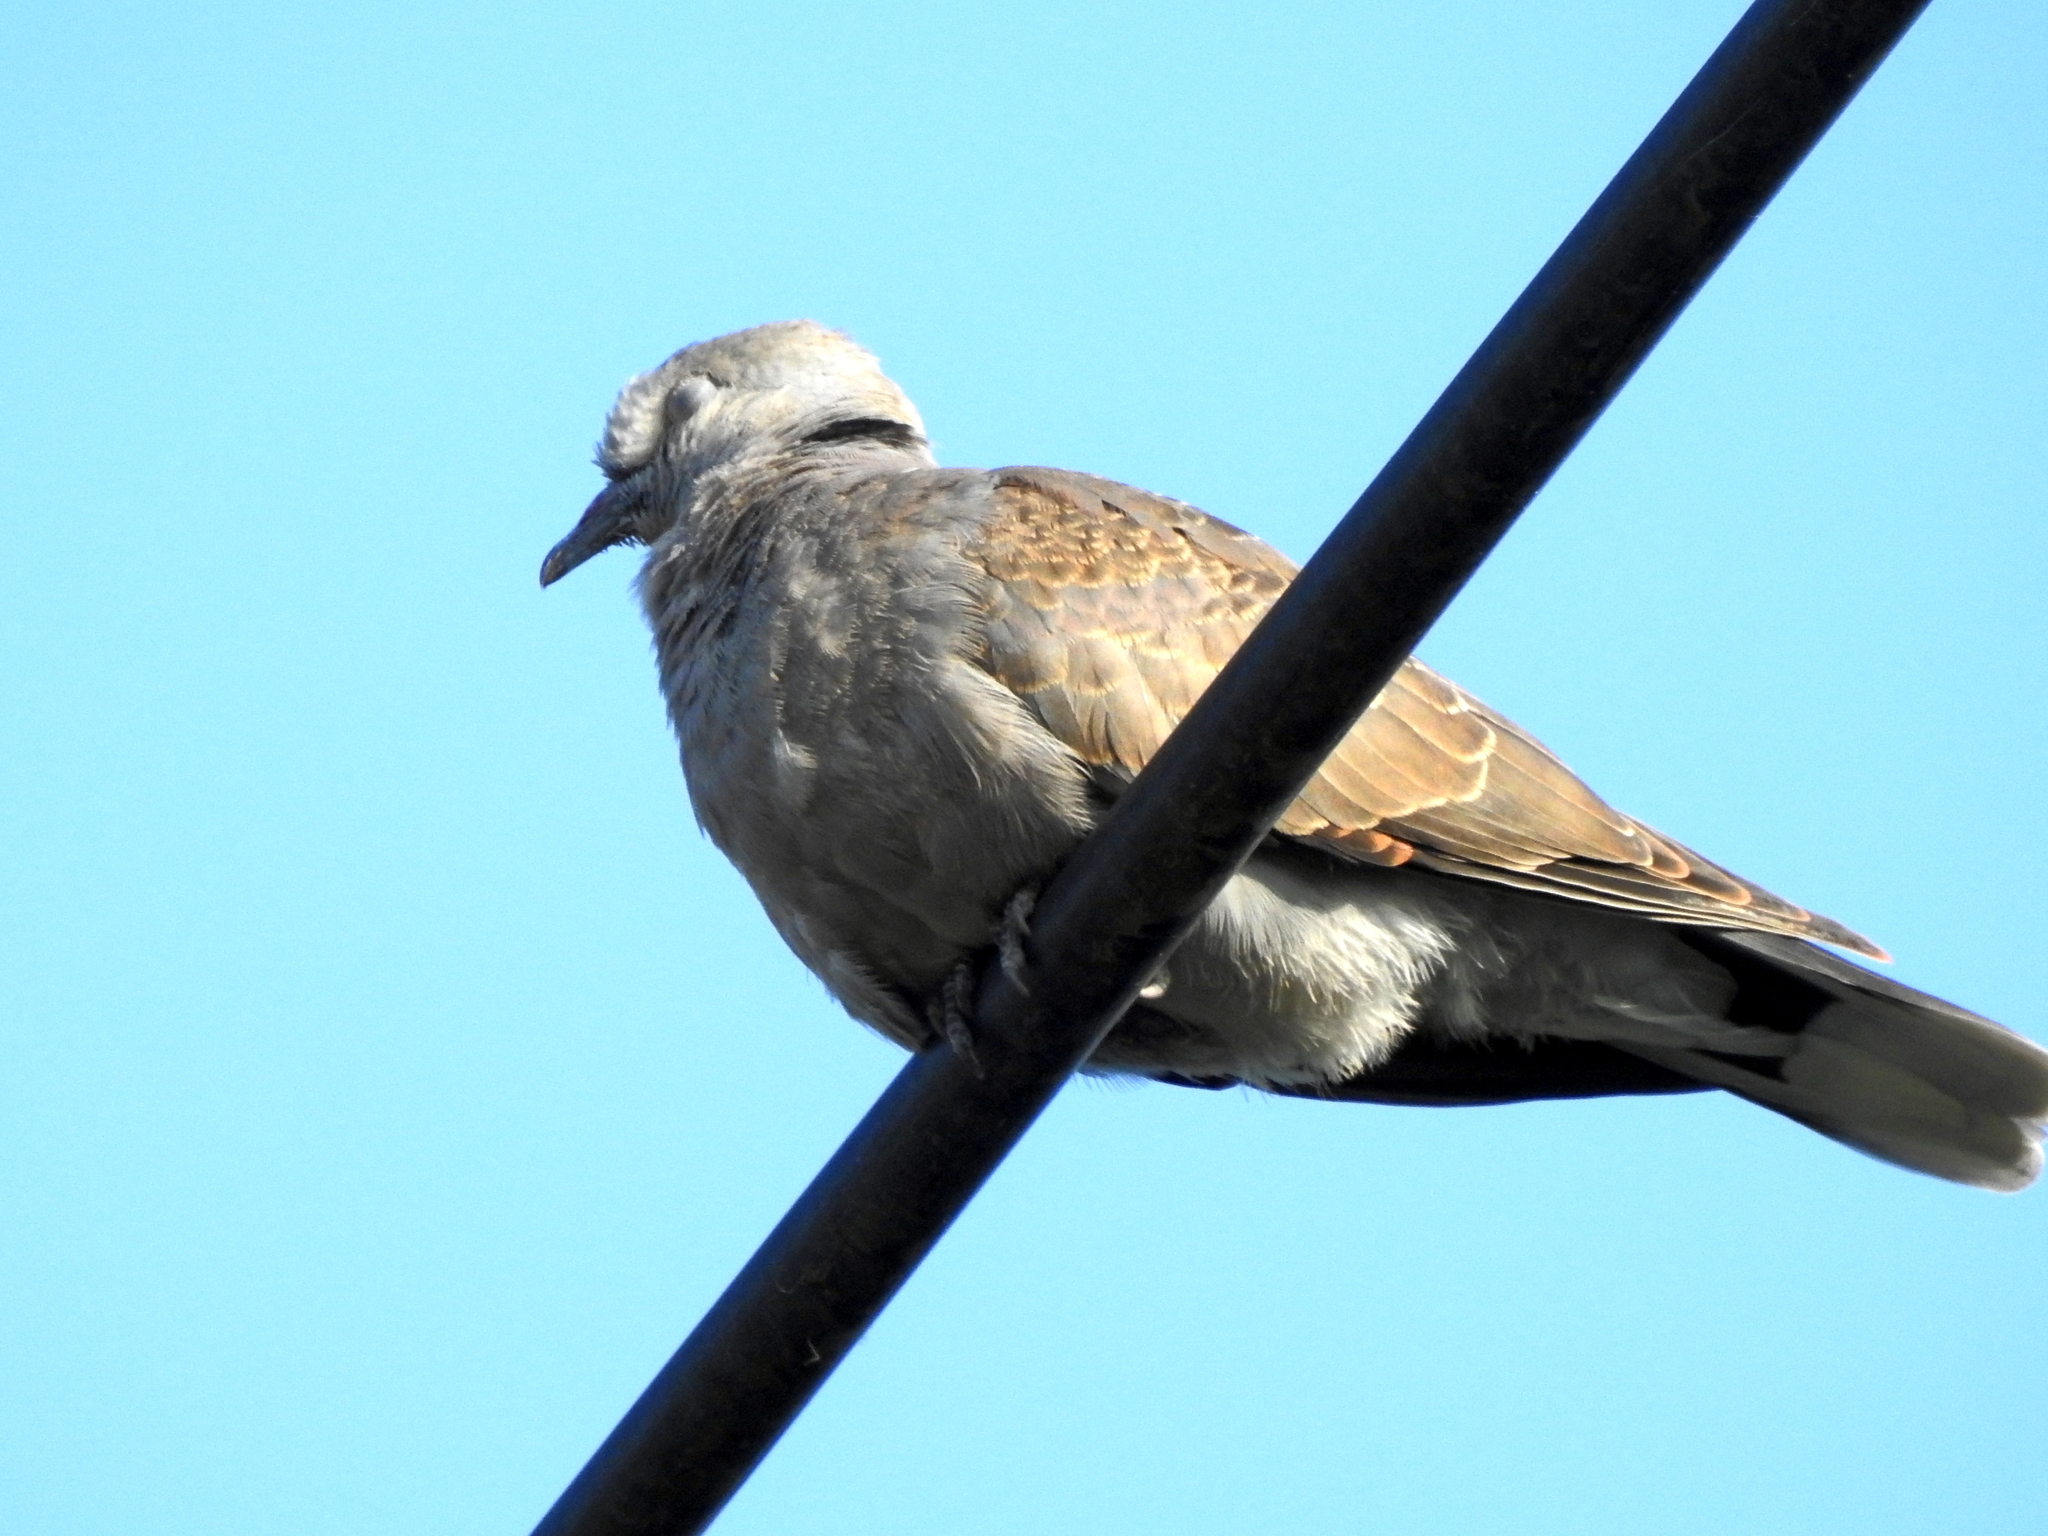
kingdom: Animalia
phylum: Chordata
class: Aves
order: Columbiformes
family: Columbidae
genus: Streptopelia
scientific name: Streptopelia tranquebarica
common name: Red turtle dove
